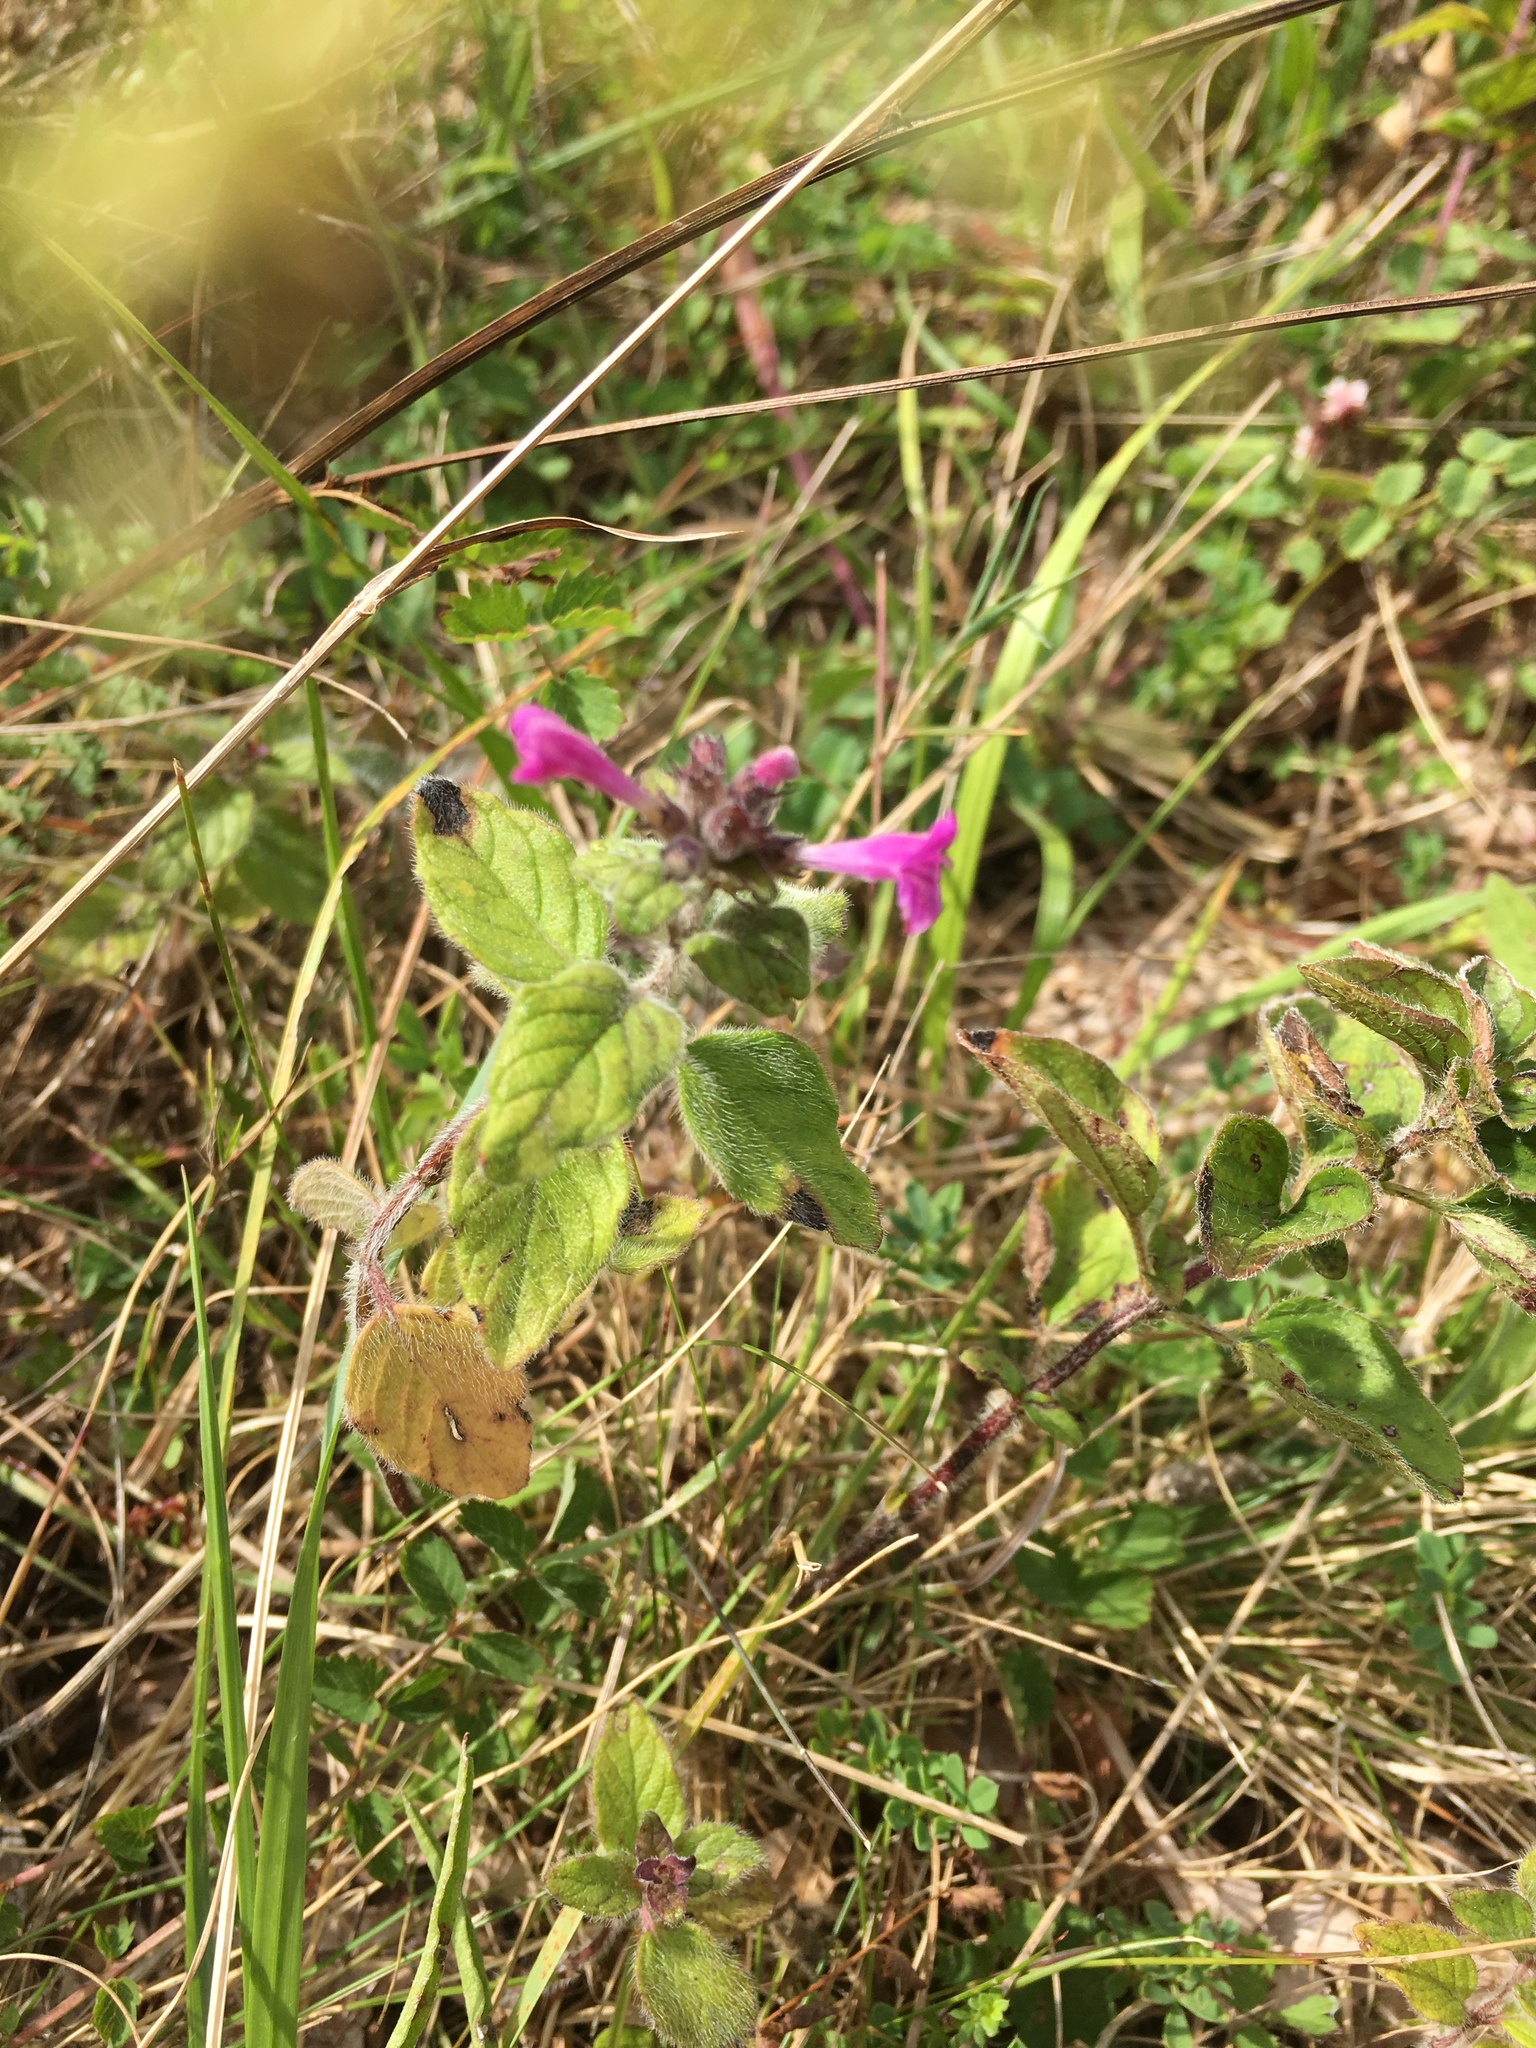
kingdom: Plantae
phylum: Tracheophyta
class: Magnoliopsida
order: Lamiales
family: Lamiaceae
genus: Clinopodium
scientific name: Clinopodium vulgare
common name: Wild basil
